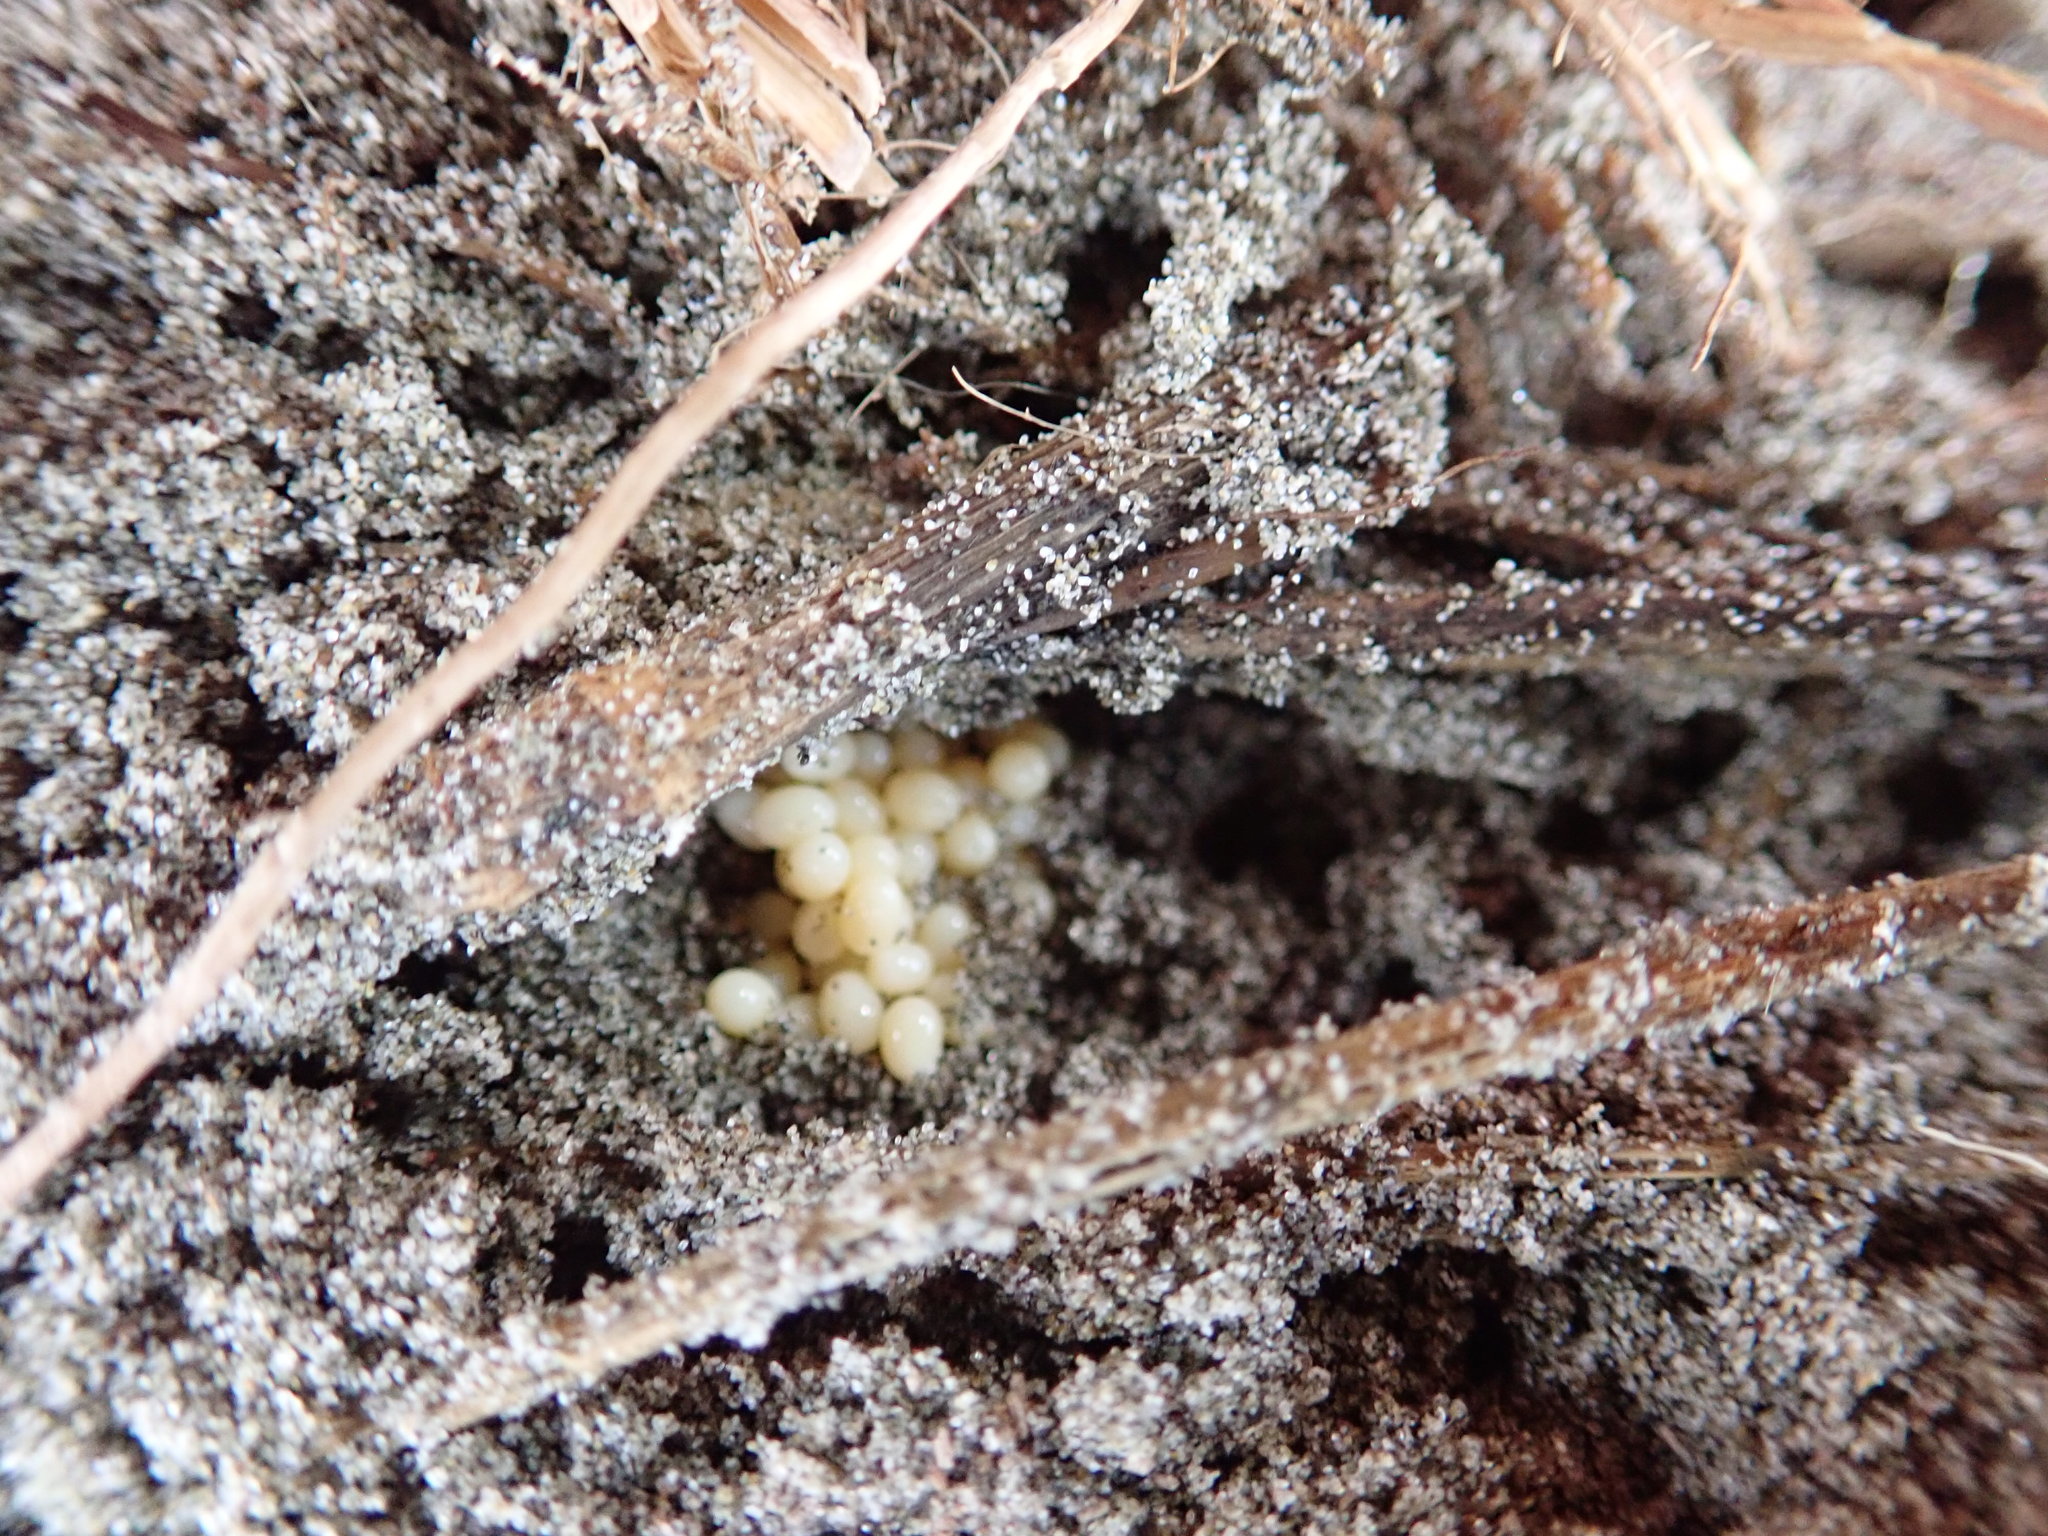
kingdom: Animalia
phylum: Arthropoda
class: Insecta
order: Dermaptera
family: Anisolabididae
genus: Anisolabis
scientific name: Anisolabis littorea
